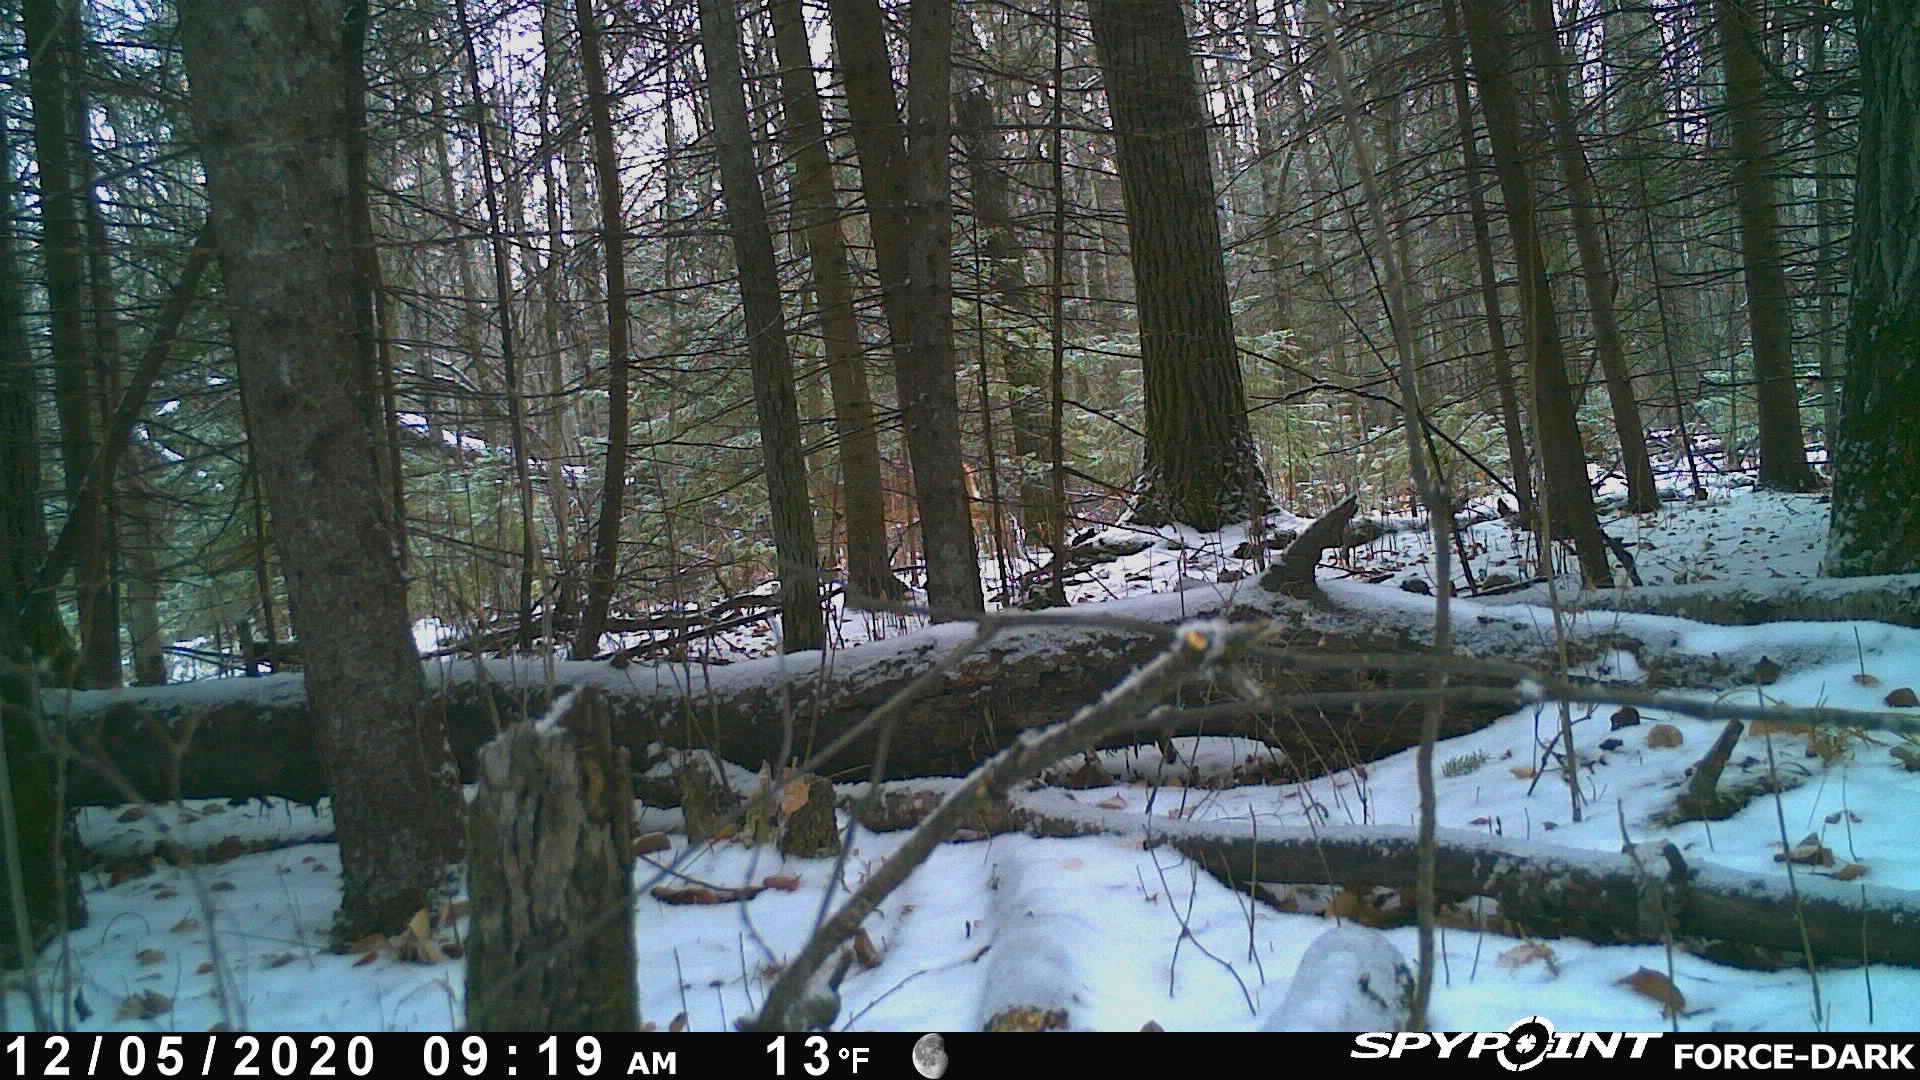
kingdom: Animalia
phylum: Chordata
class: Mammalia
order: Artiodactyla
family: Cervidae
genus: Odocoileus
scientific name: Odocoileus virginianus
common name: White-tailed deer
